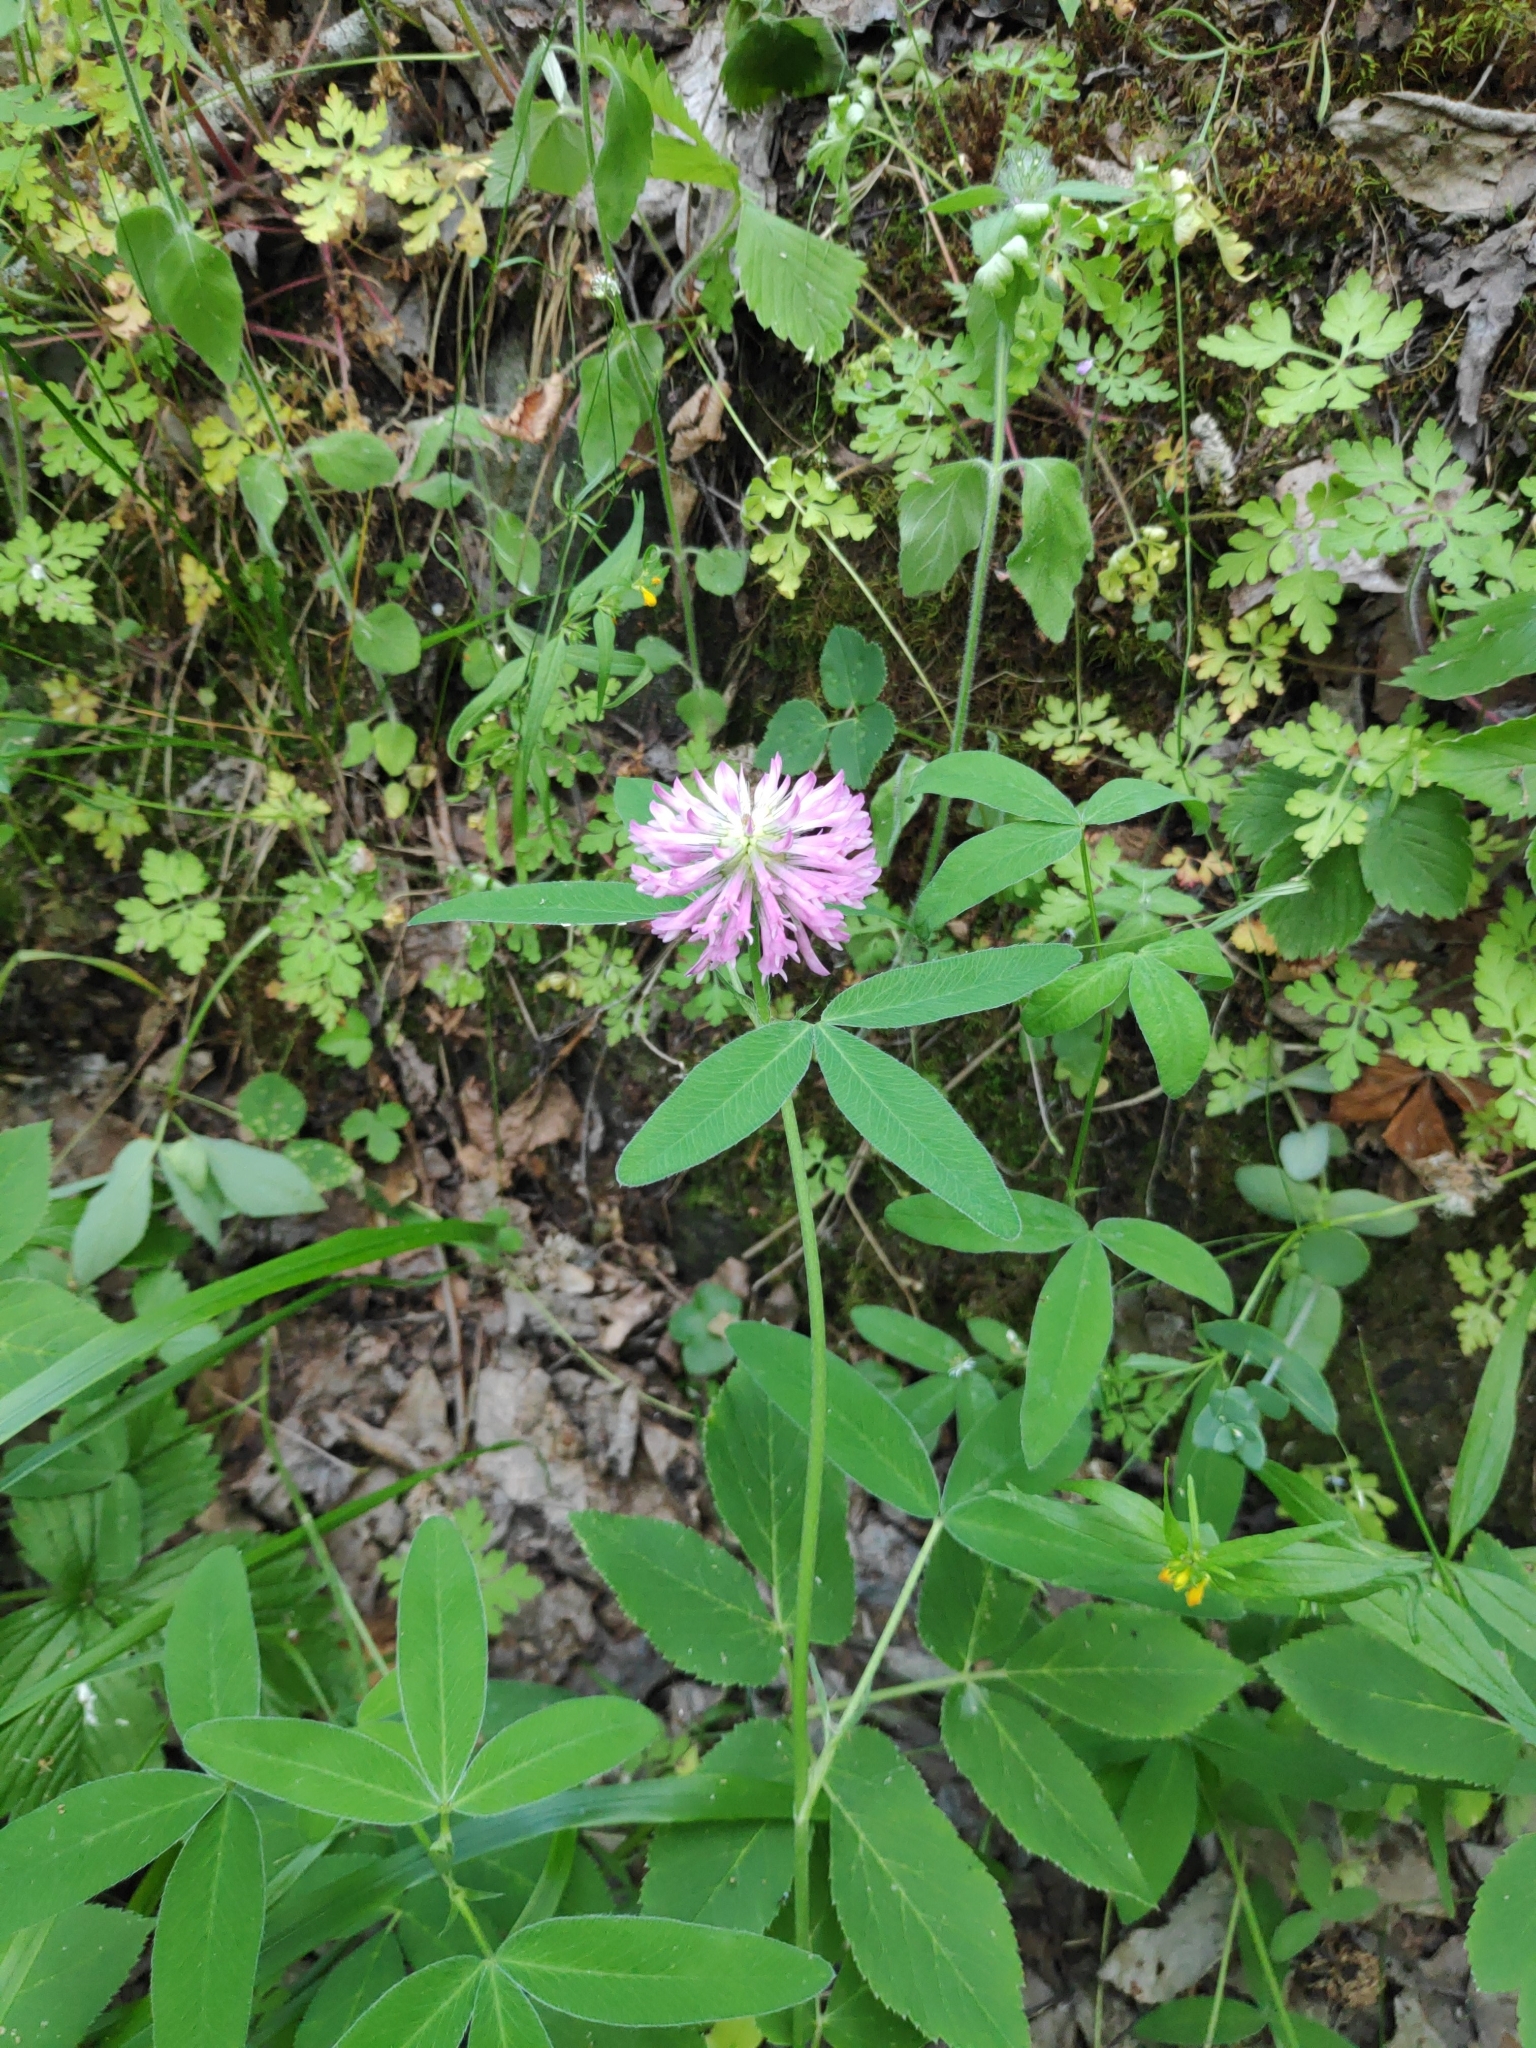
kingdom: Plantae
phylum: Tracheophyta
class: Magnoliopsida
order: Fabales
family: Fabaceae
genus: Trifolium
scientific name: Trifolium medium
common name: Zigzag clover
